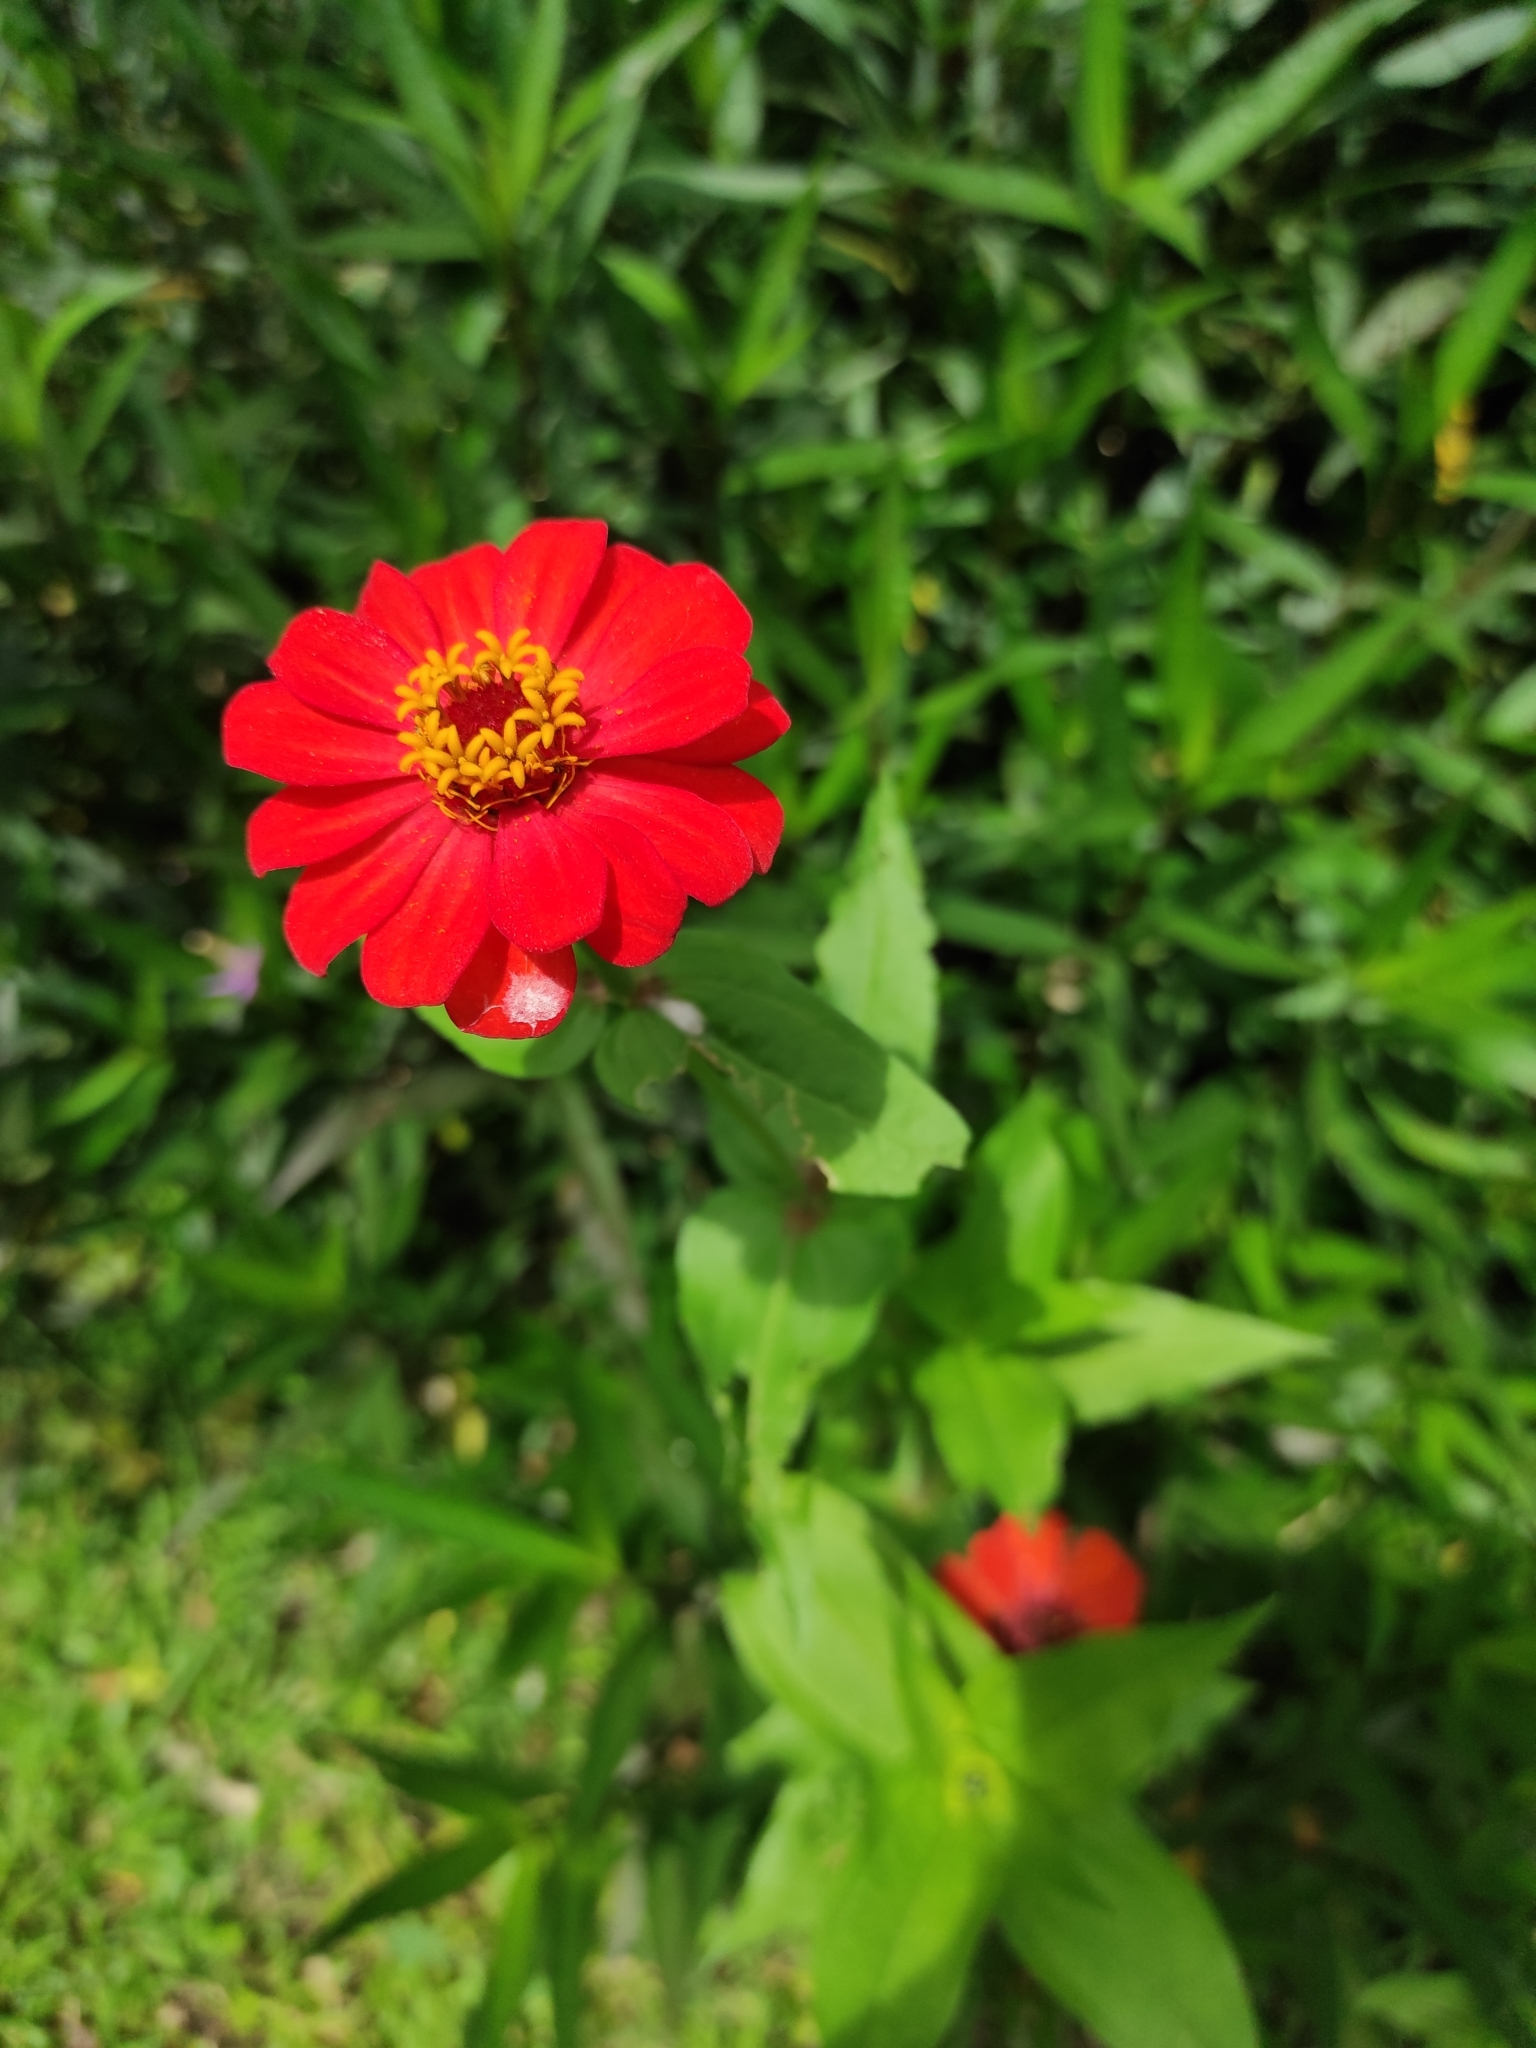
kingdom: Plantae
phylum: Tracheophyta
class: Magnoliopsida
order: Asterales
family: Asteraceae
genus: Zinnia
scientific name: Zinnia elegans
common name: Youth-and-age
